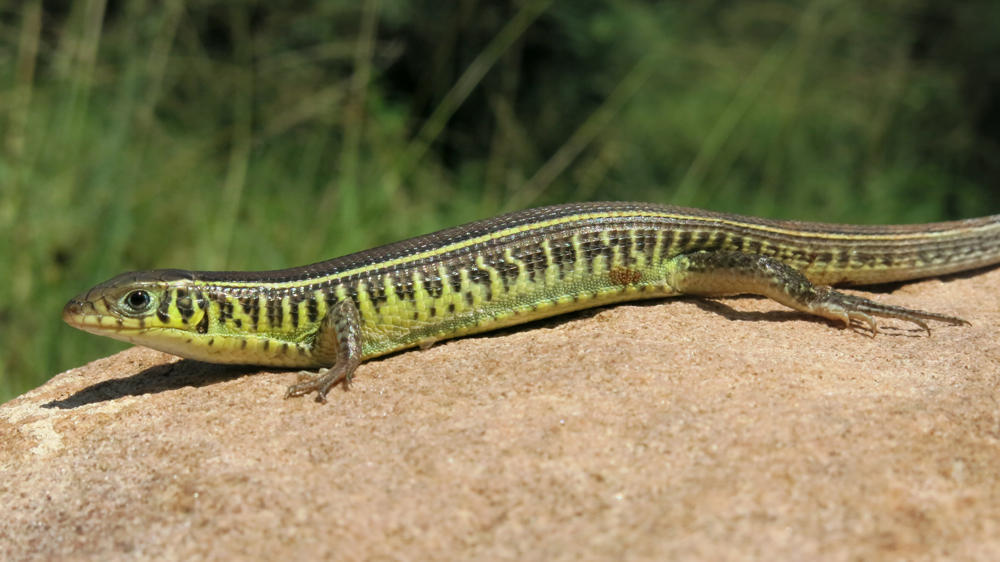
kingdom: Animalia
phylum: Chordata
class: Squamata
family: Gerrhosauridae
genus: Gerrhosaurus
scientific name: Gerrhosaurus flavigularis
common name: Yellow-throated plated lizard
